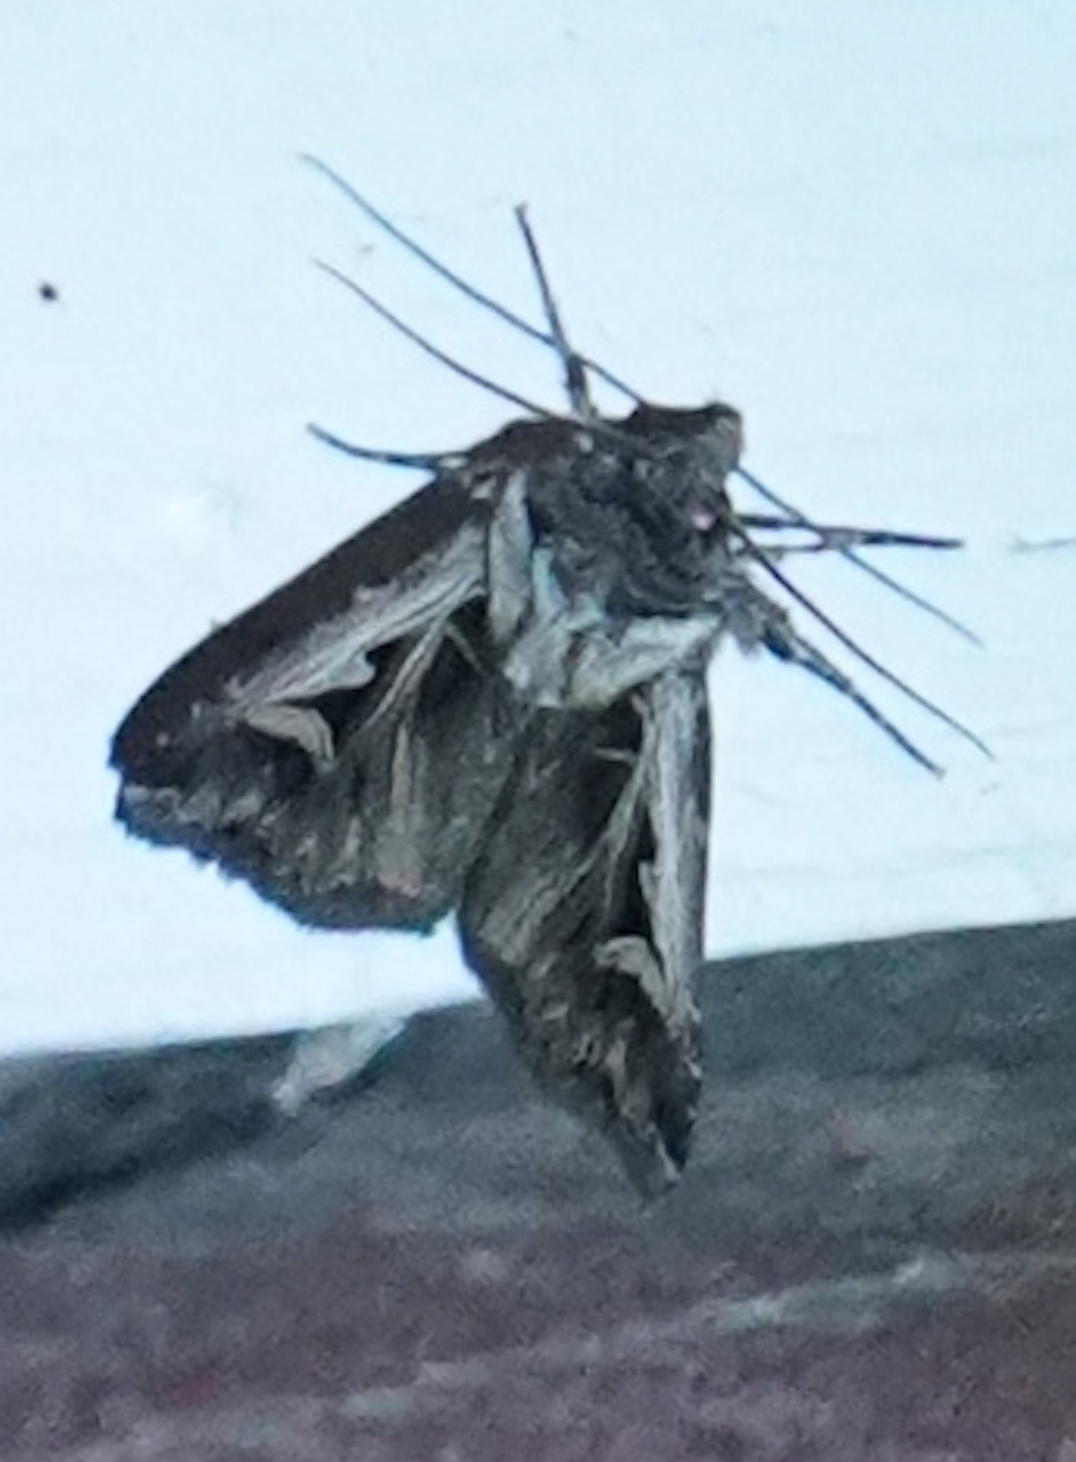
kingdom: Animalia
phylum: Arthropoda
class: Insecta
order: Lepidoptera
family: Noctuidae
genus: Feltia
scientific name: Feltia
